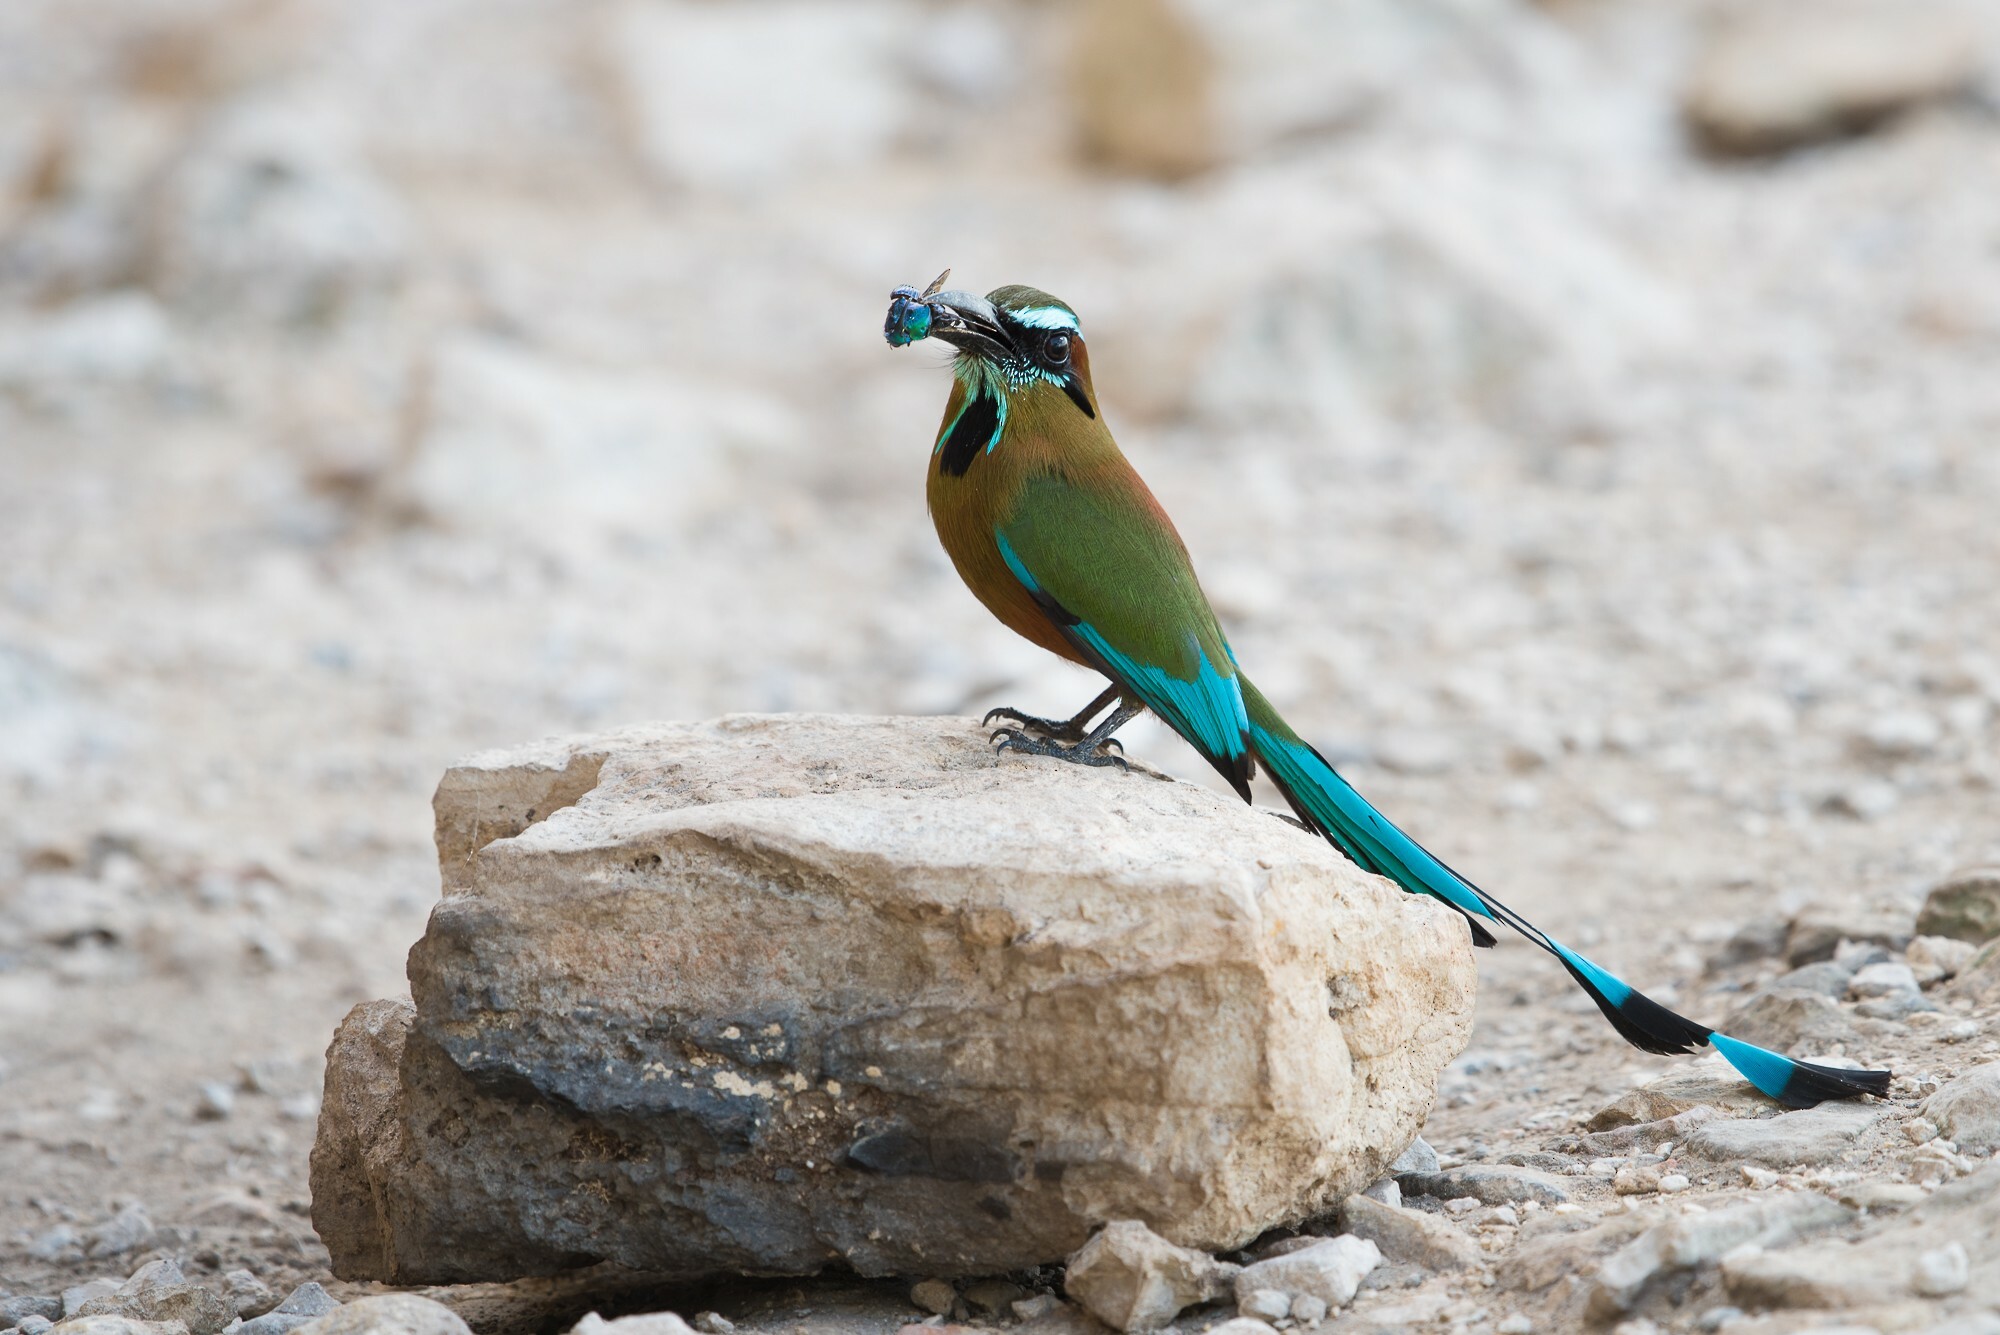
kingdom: Animalia
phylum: Chordata
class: Aves
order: Coraciiformes
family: Momotidae
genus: Eumomota
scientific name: Eumomota superciliosa
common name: Turquoise-browed motmot
